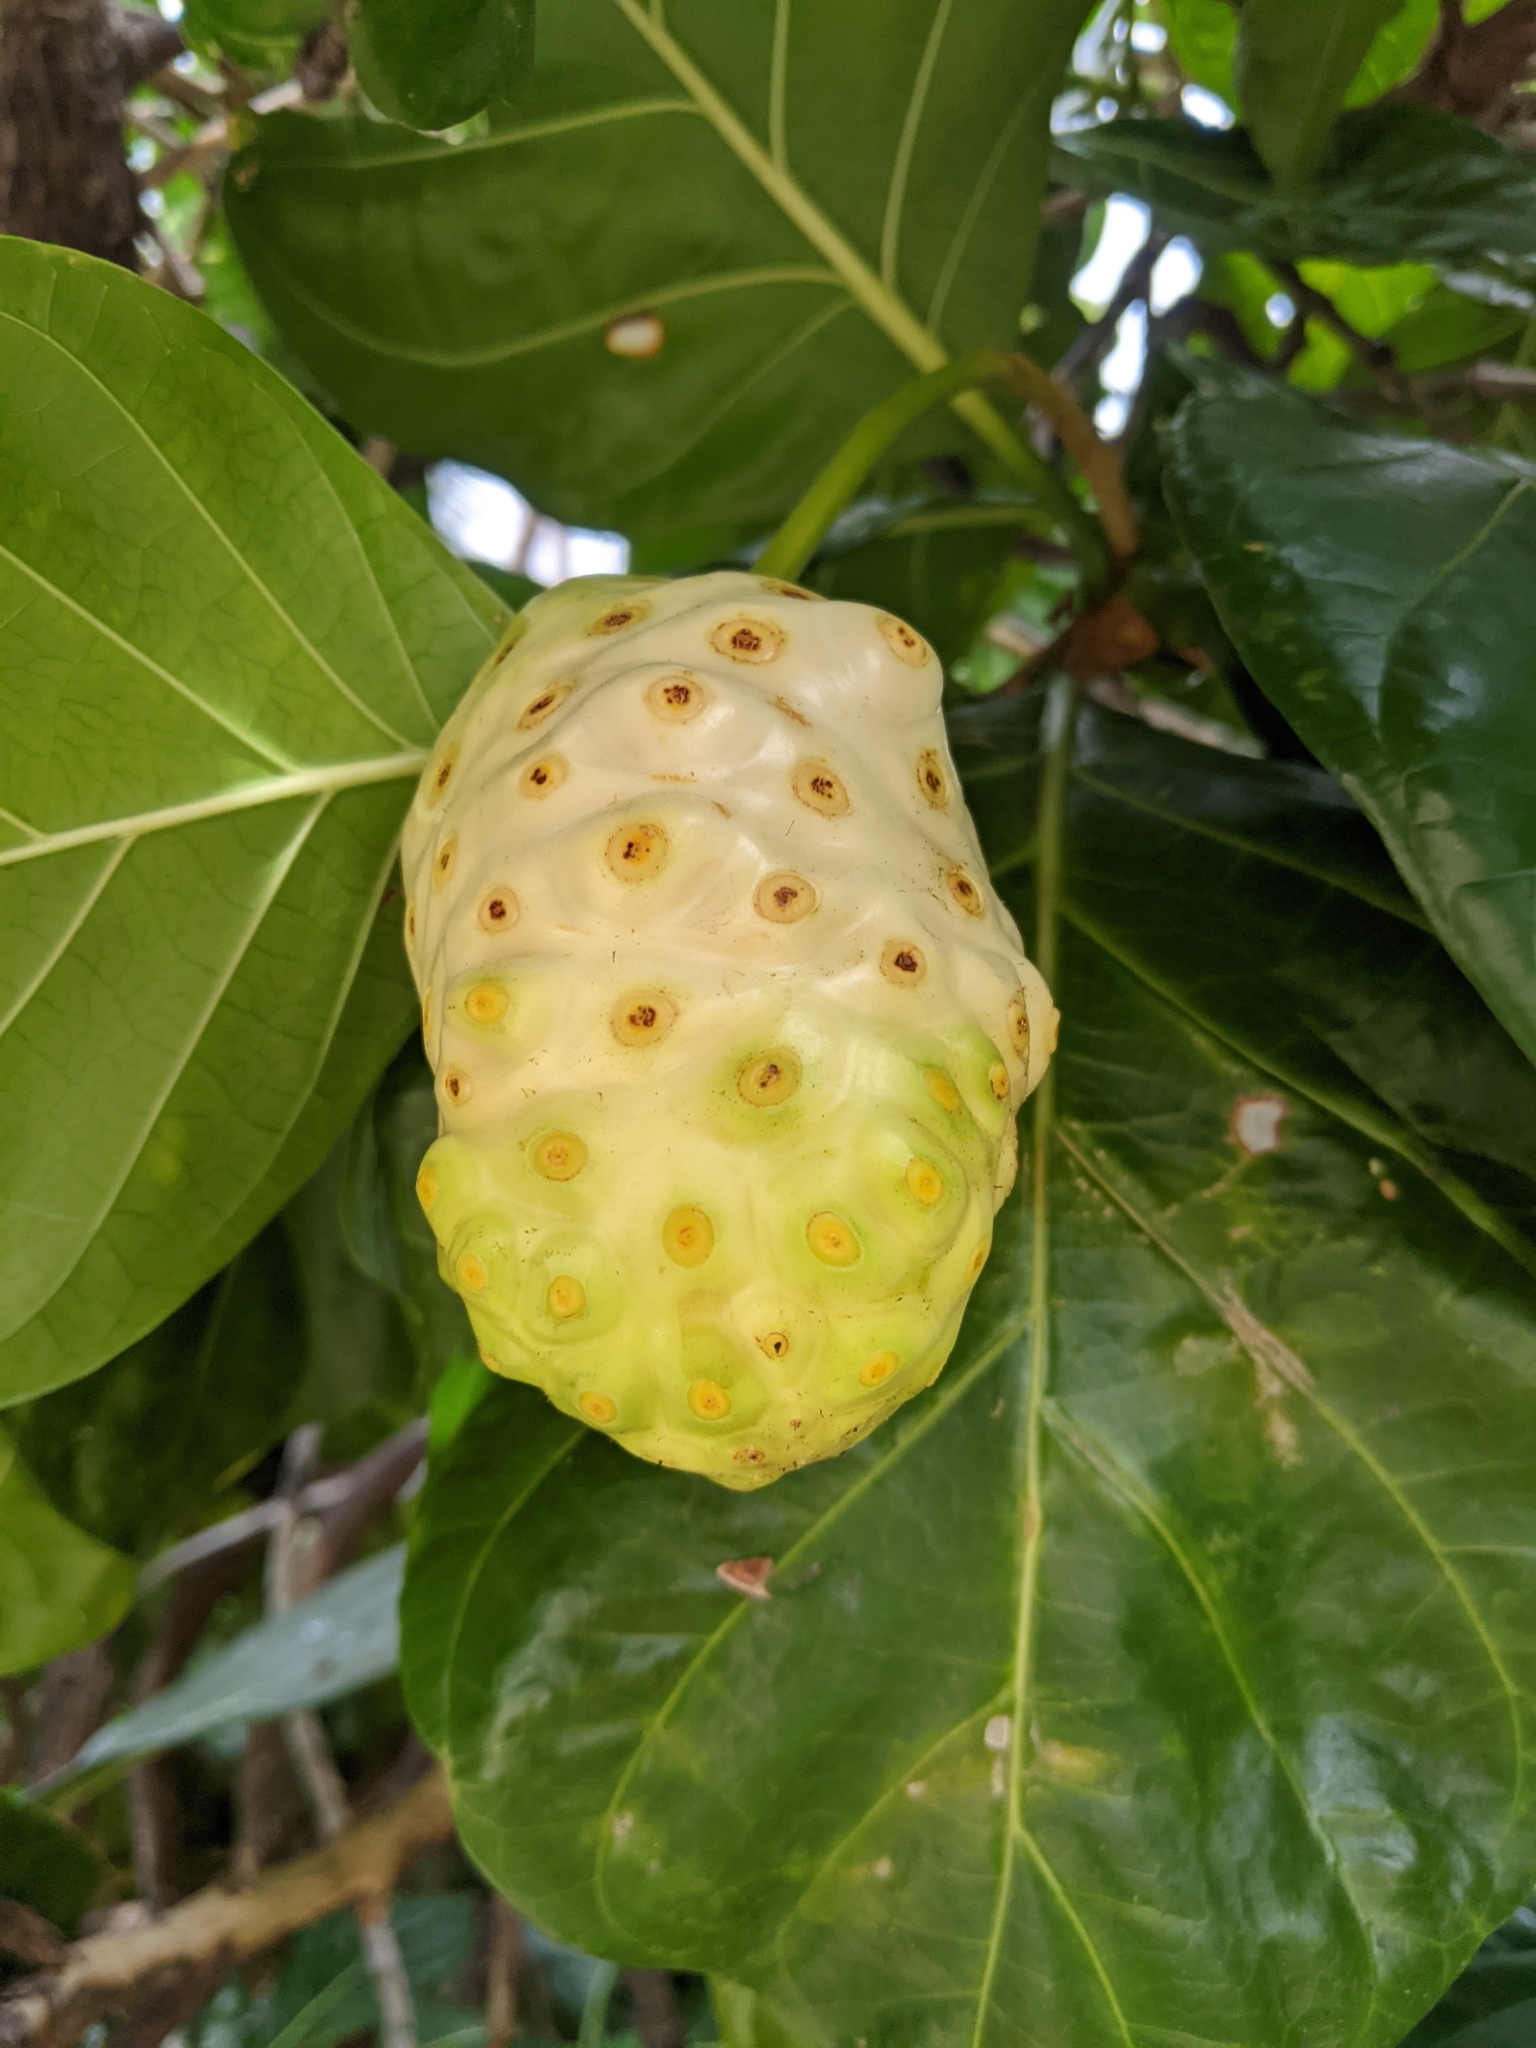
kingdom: Plantae
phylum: Tracheophyta
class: Magnoliopsida
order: Gentianales
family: Rubiaceae
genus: Morinda
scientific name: Morinda citrifolia
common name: Indian-mulberry
